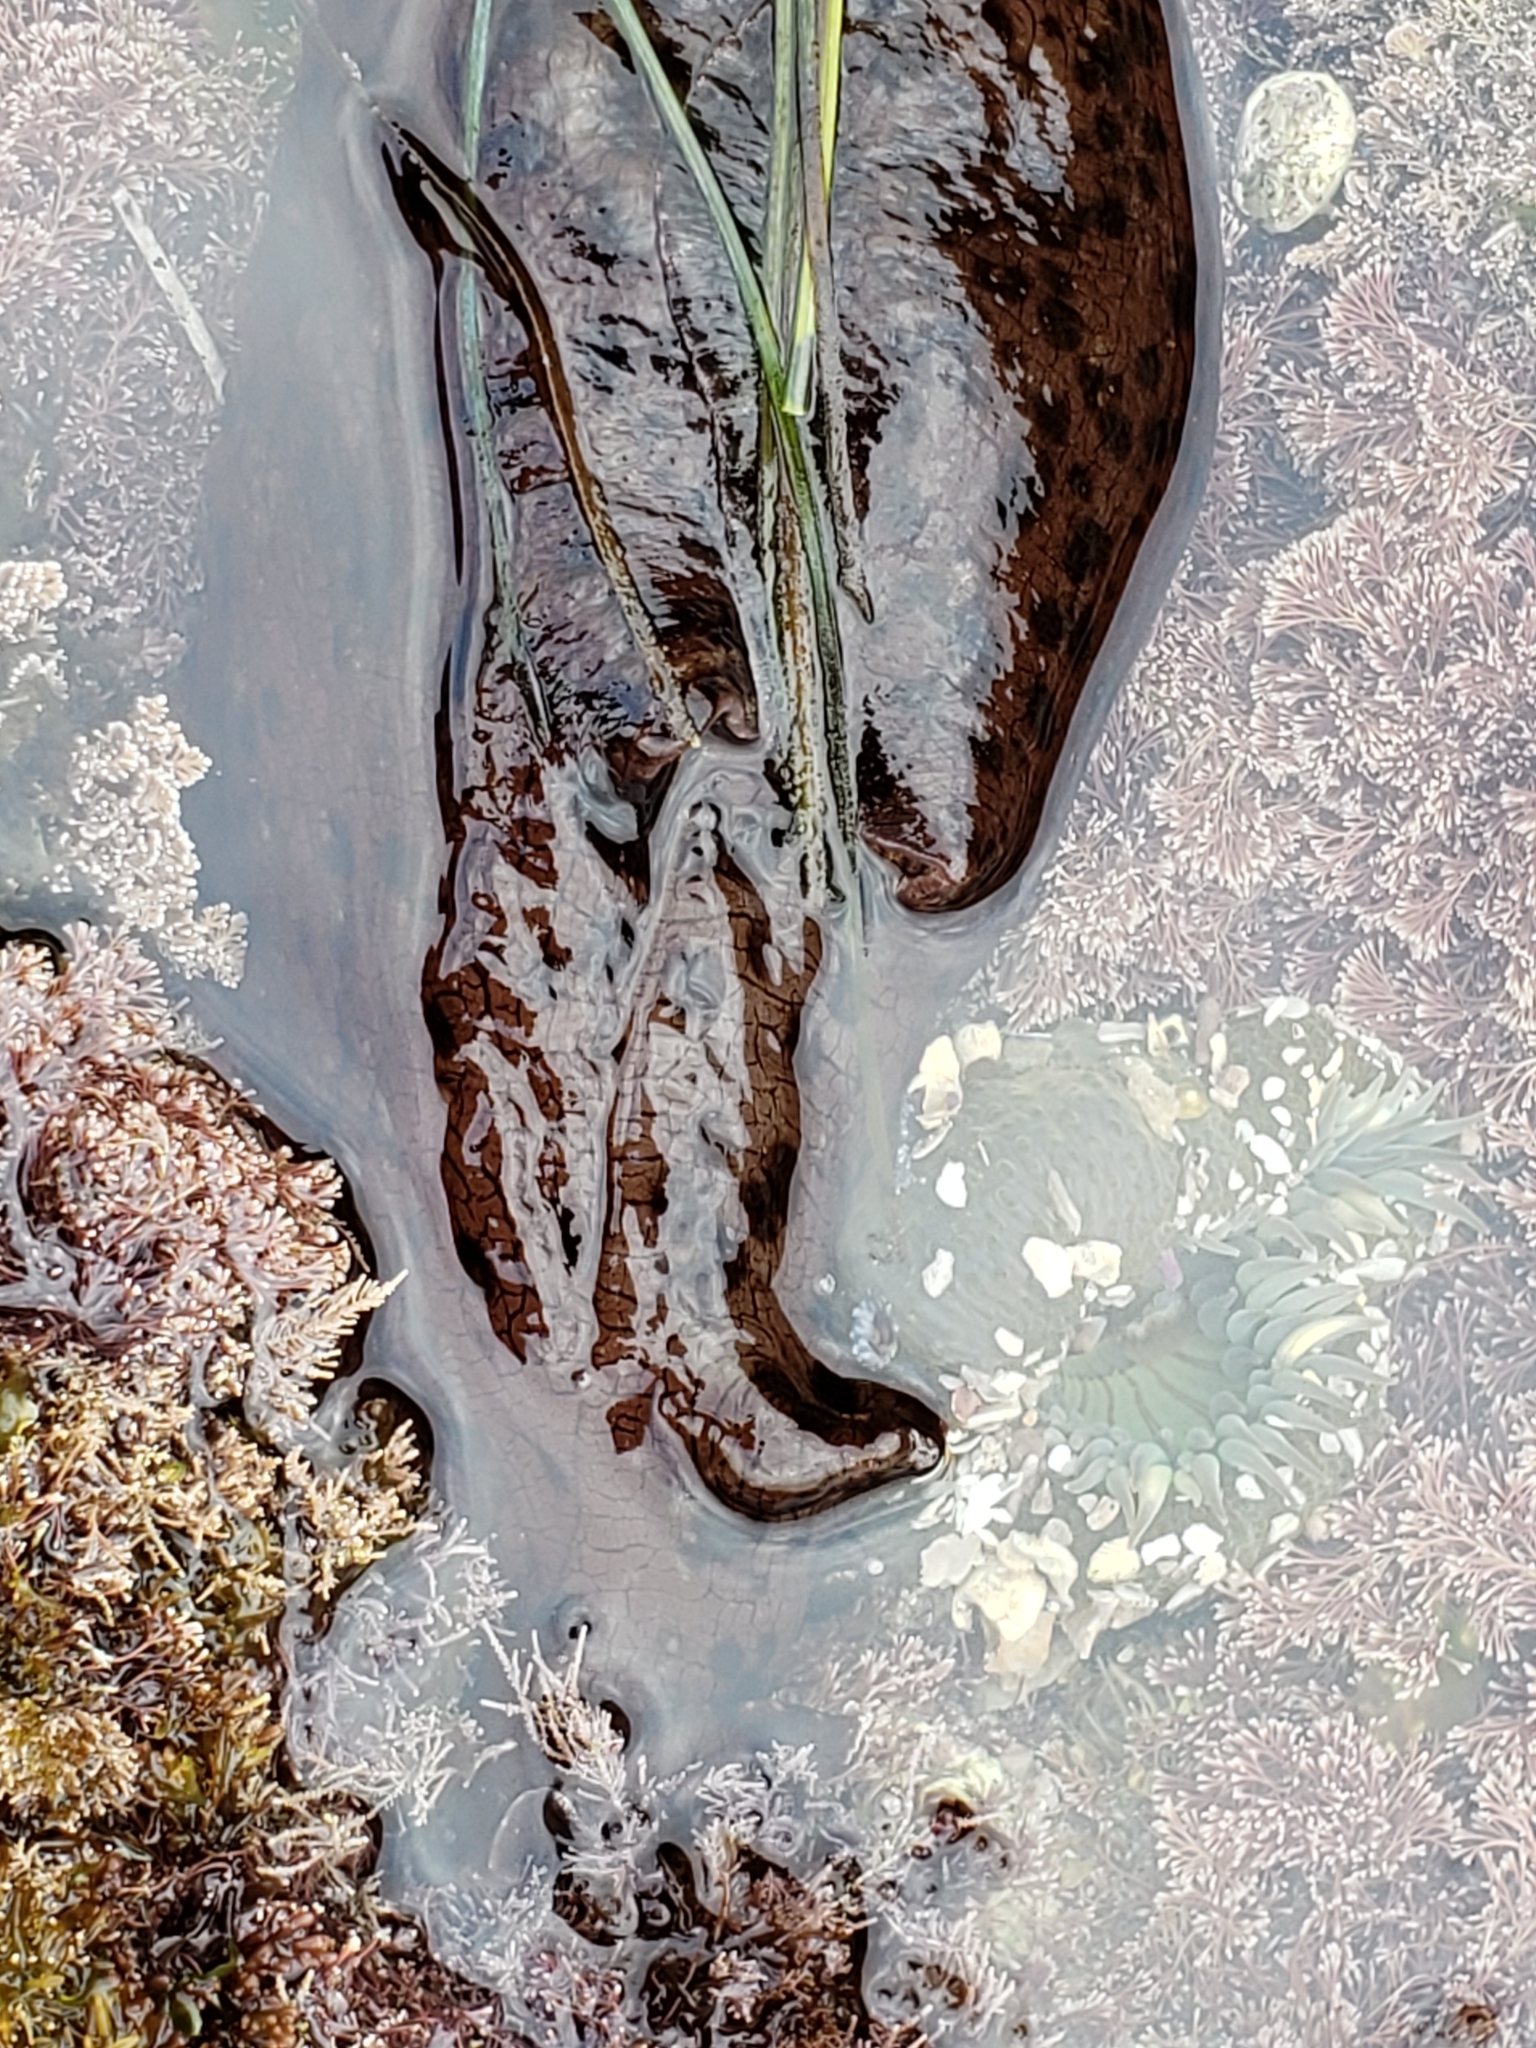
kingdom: Animalia
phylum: Mollusca
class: Gastropoda
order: Aplysiida
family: Aplysiidae
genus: Aplysia
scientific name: Aplysia californica
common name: California seahare
